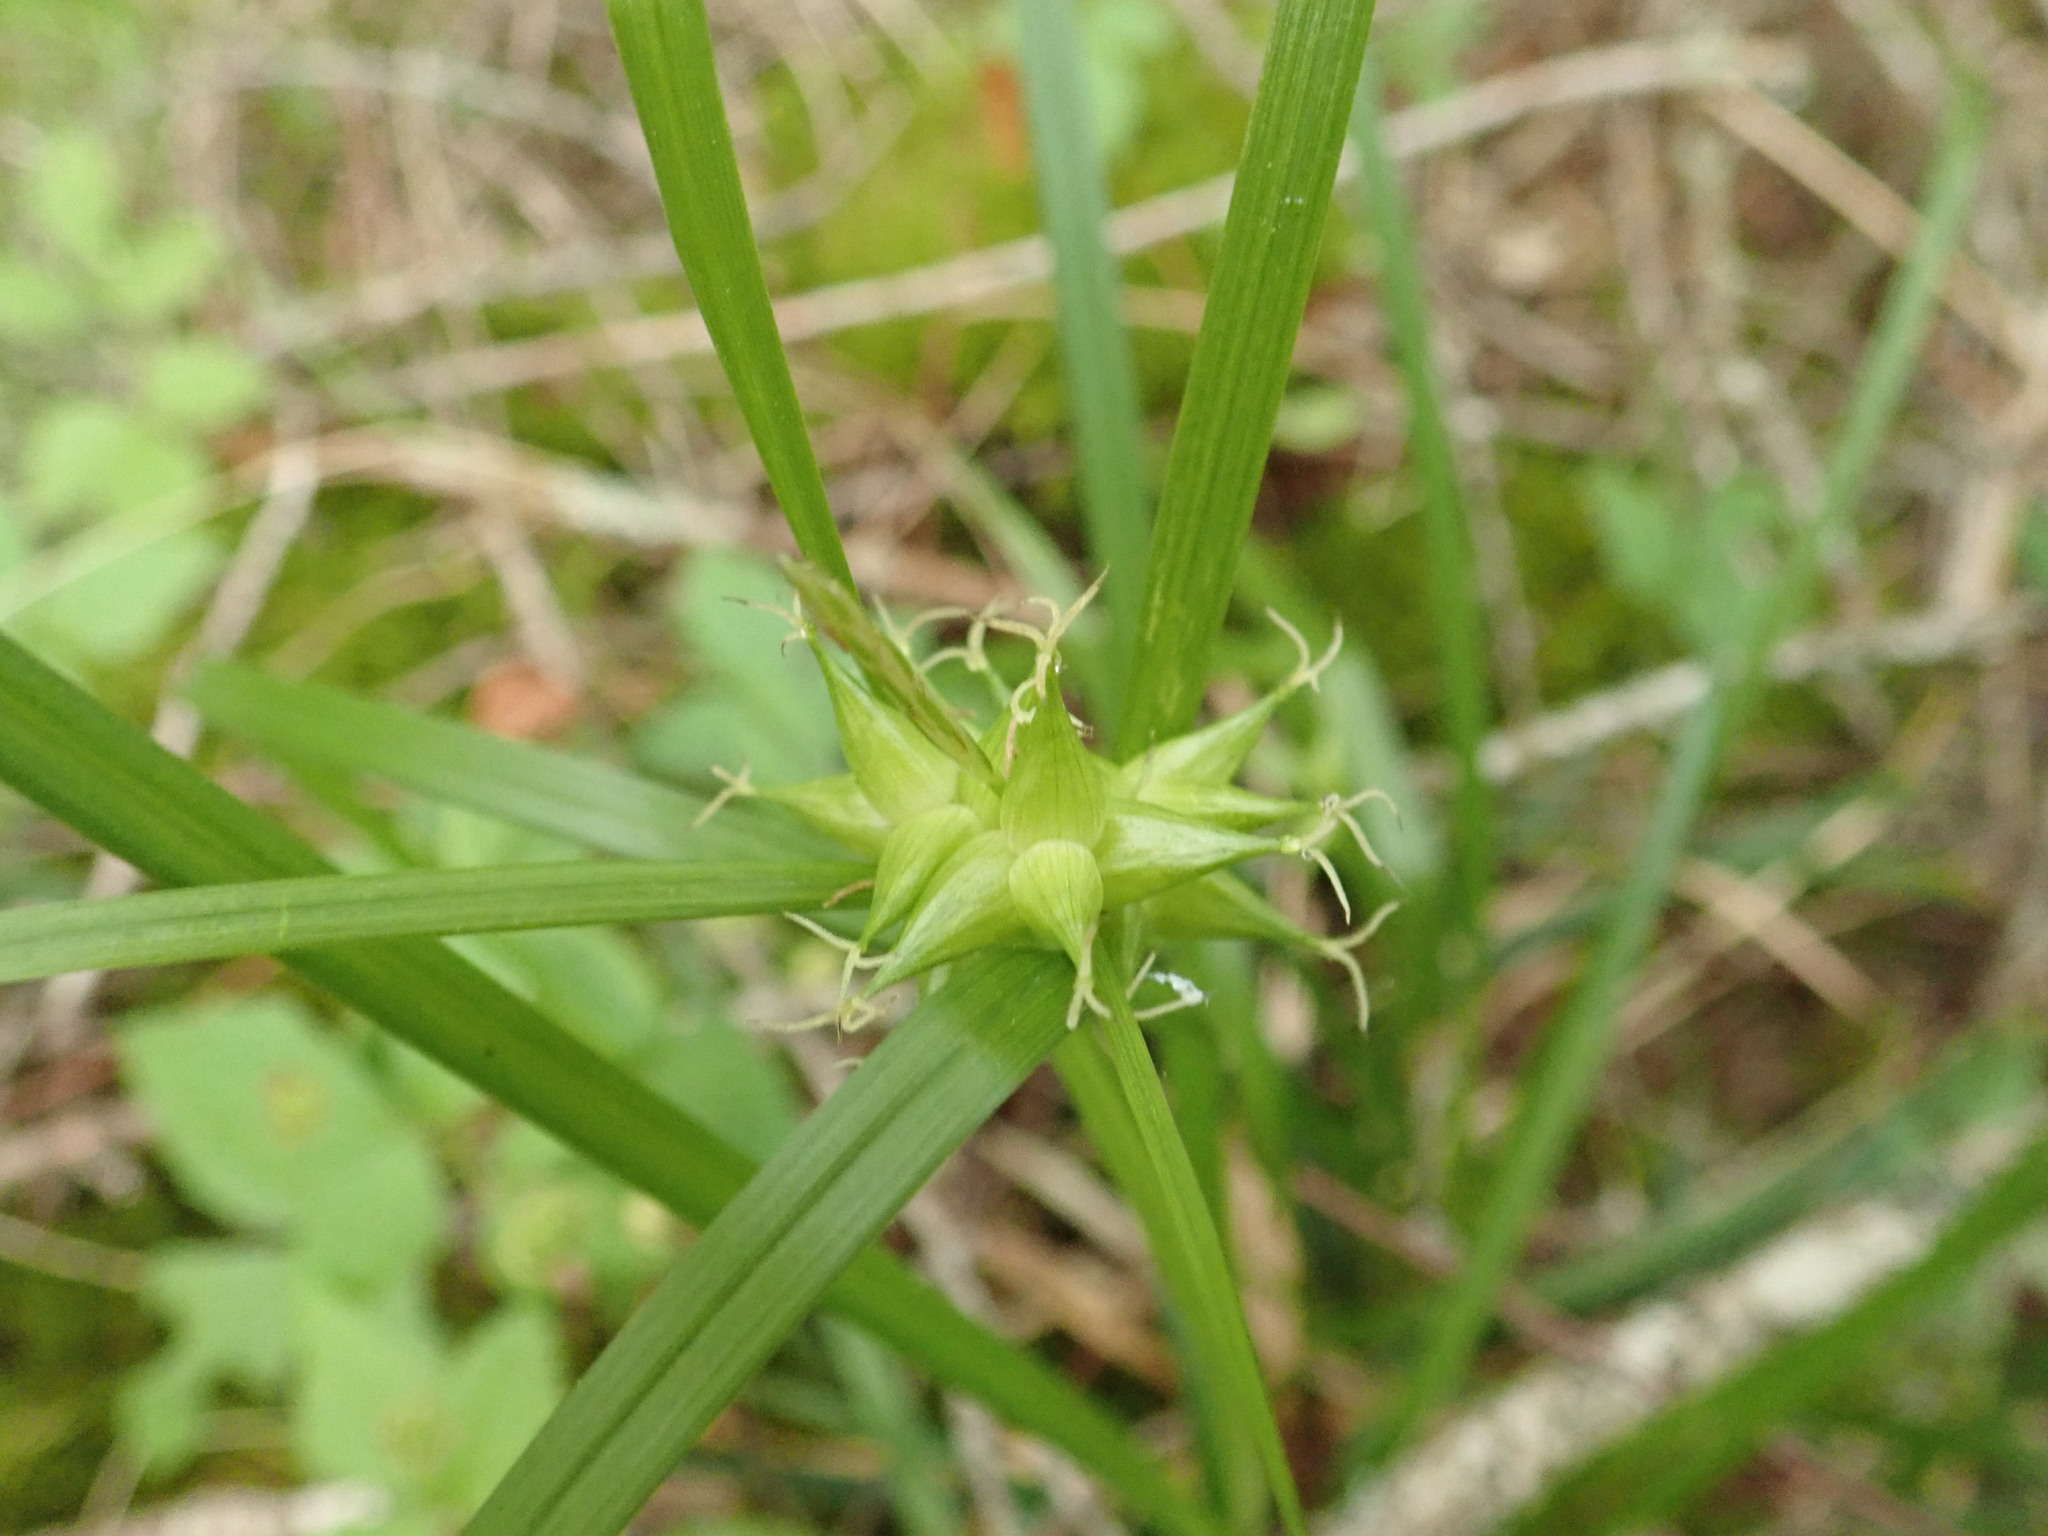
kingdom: Plantae
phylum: Tracheophyta
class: Liliopsida
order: Poales
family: Cyperaceae
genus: Carex
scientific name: Carex intumescens
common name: Greater bladder sedge
